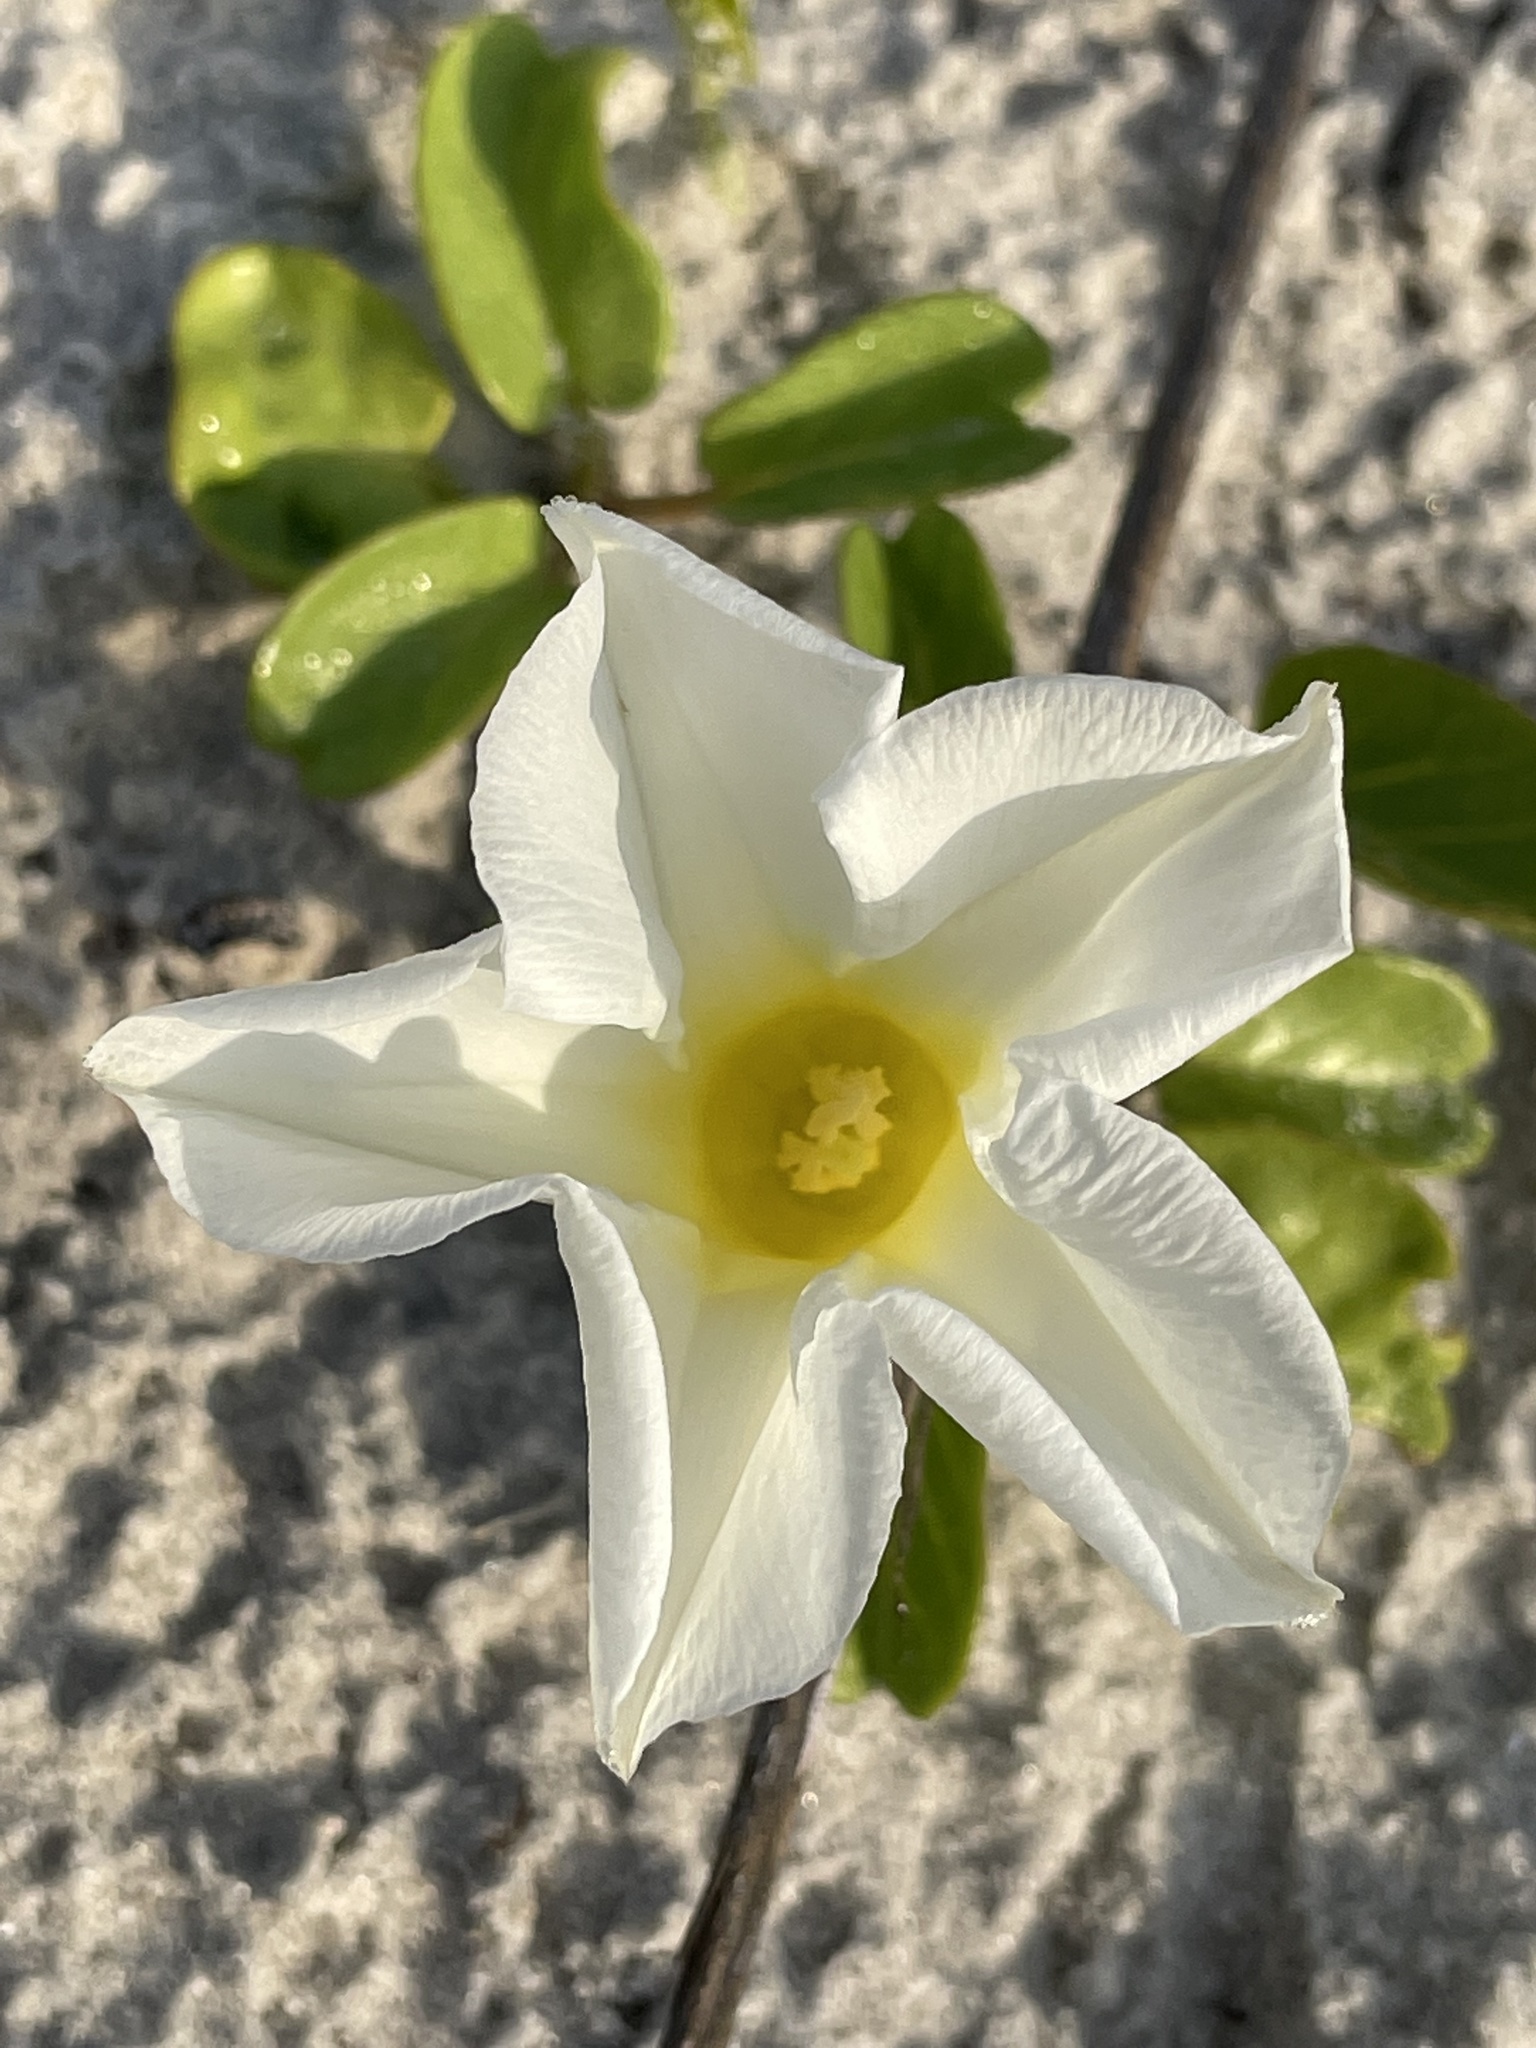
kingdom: Plantae
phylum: Tracheophyta
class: Magnoliopsida
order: Solanales
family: Convolvulaceae
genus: Ipomoea
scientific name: Ipomoea imperati
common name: Fiddle-leaf morning-glory
